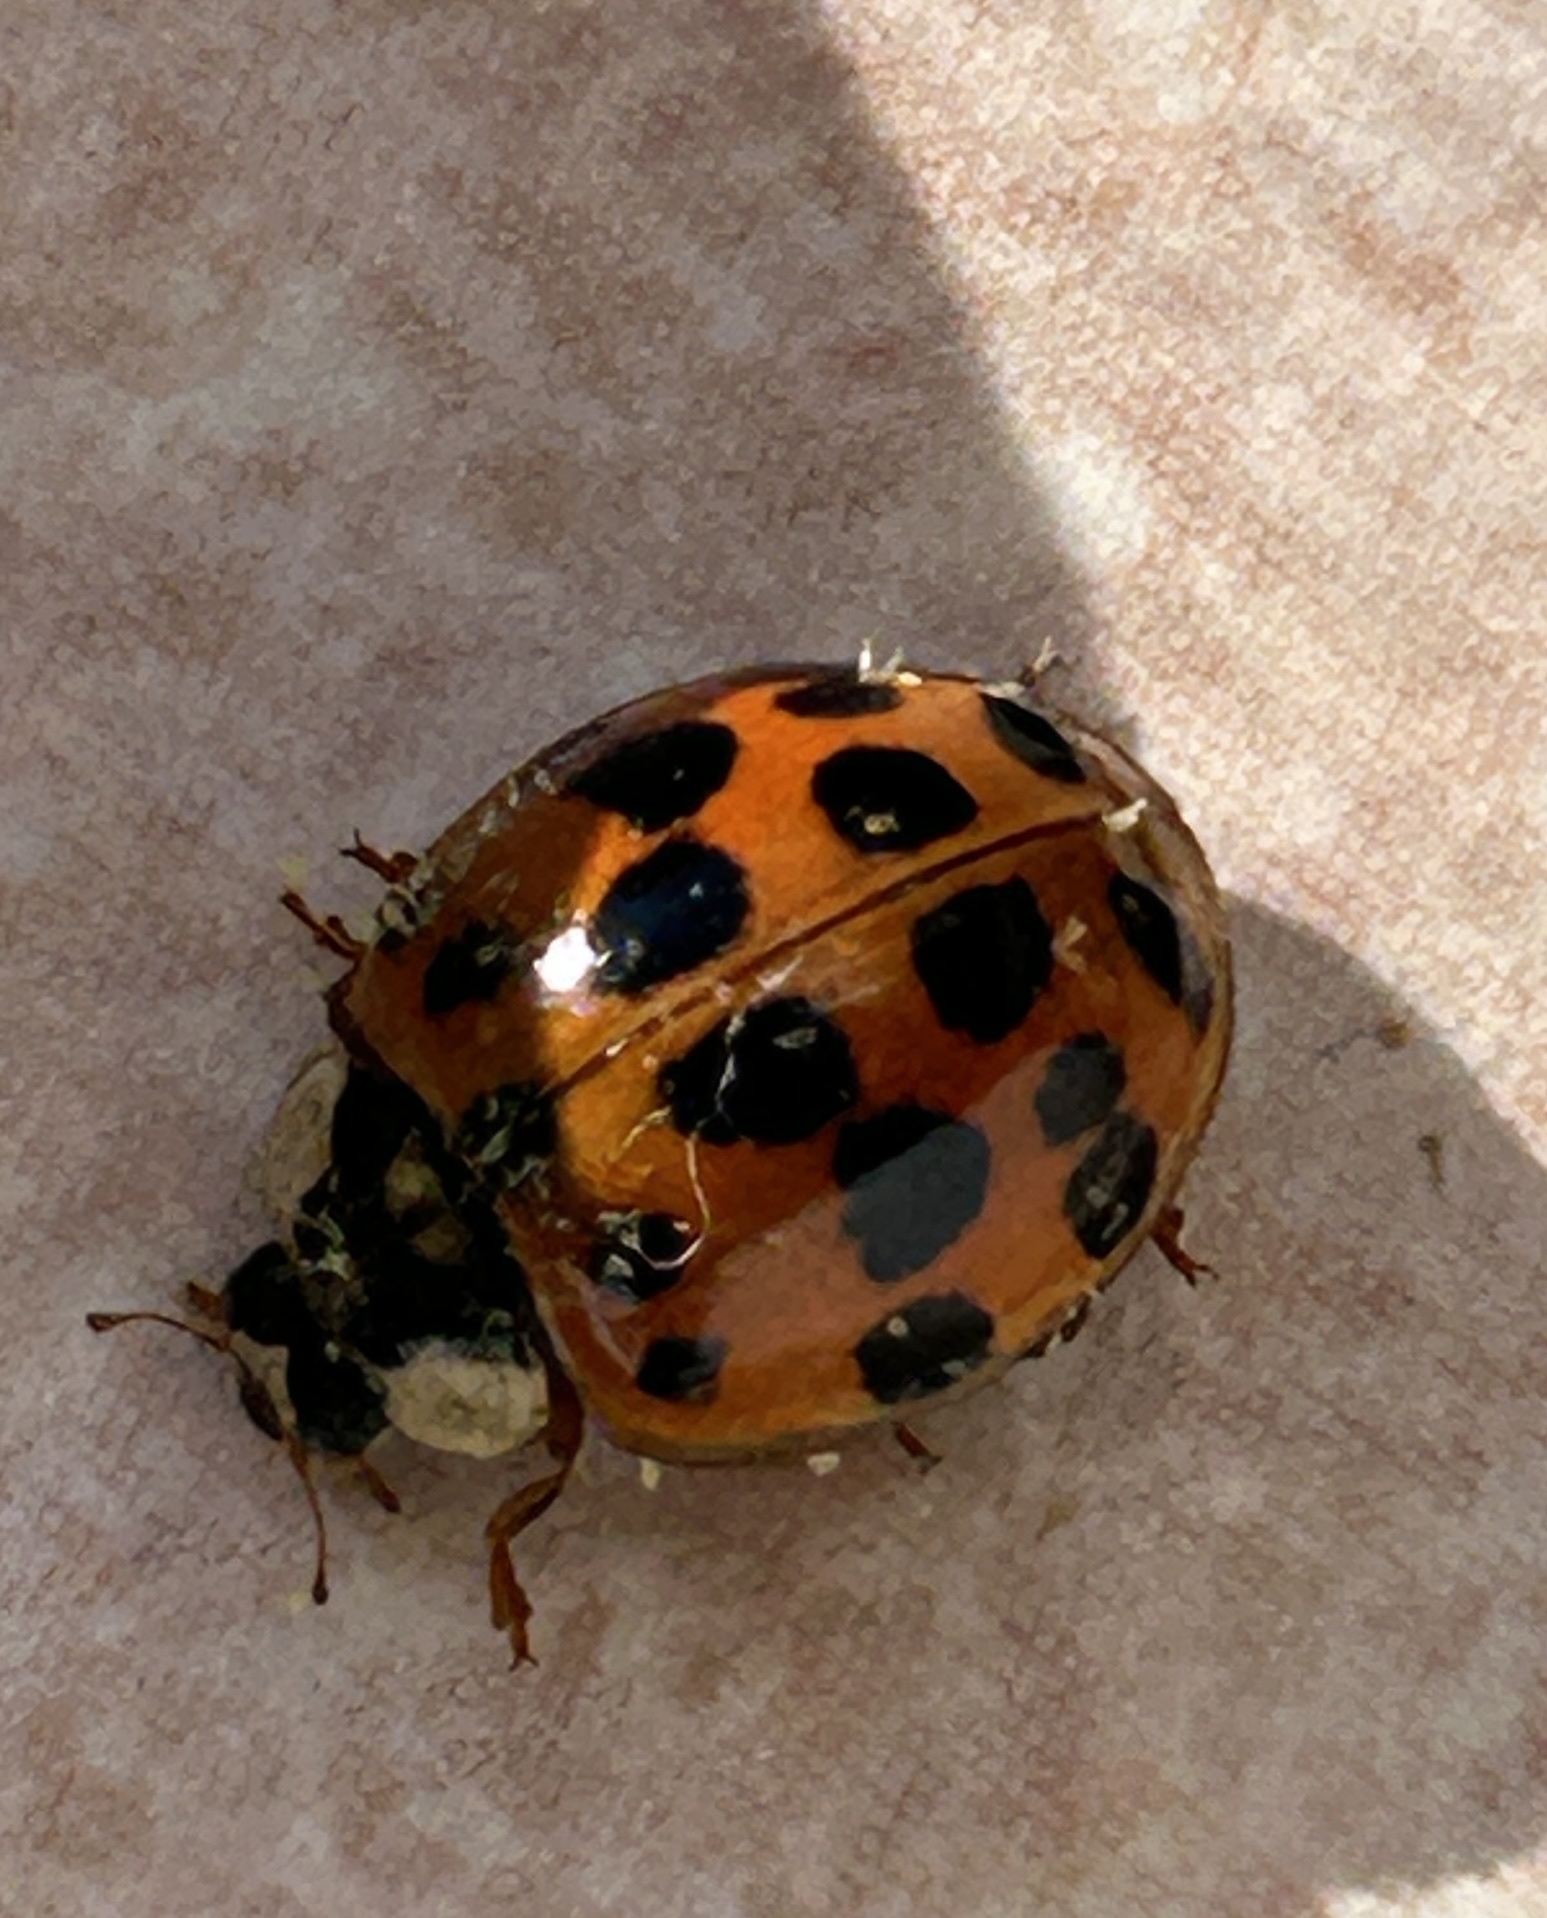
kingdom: Animalia
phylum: Arthropoda
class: Insecta
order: Coleoptera
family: Coccinellidae
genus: Harmonia
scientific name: Harmonia axyridis
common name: Harlequin ladybird
